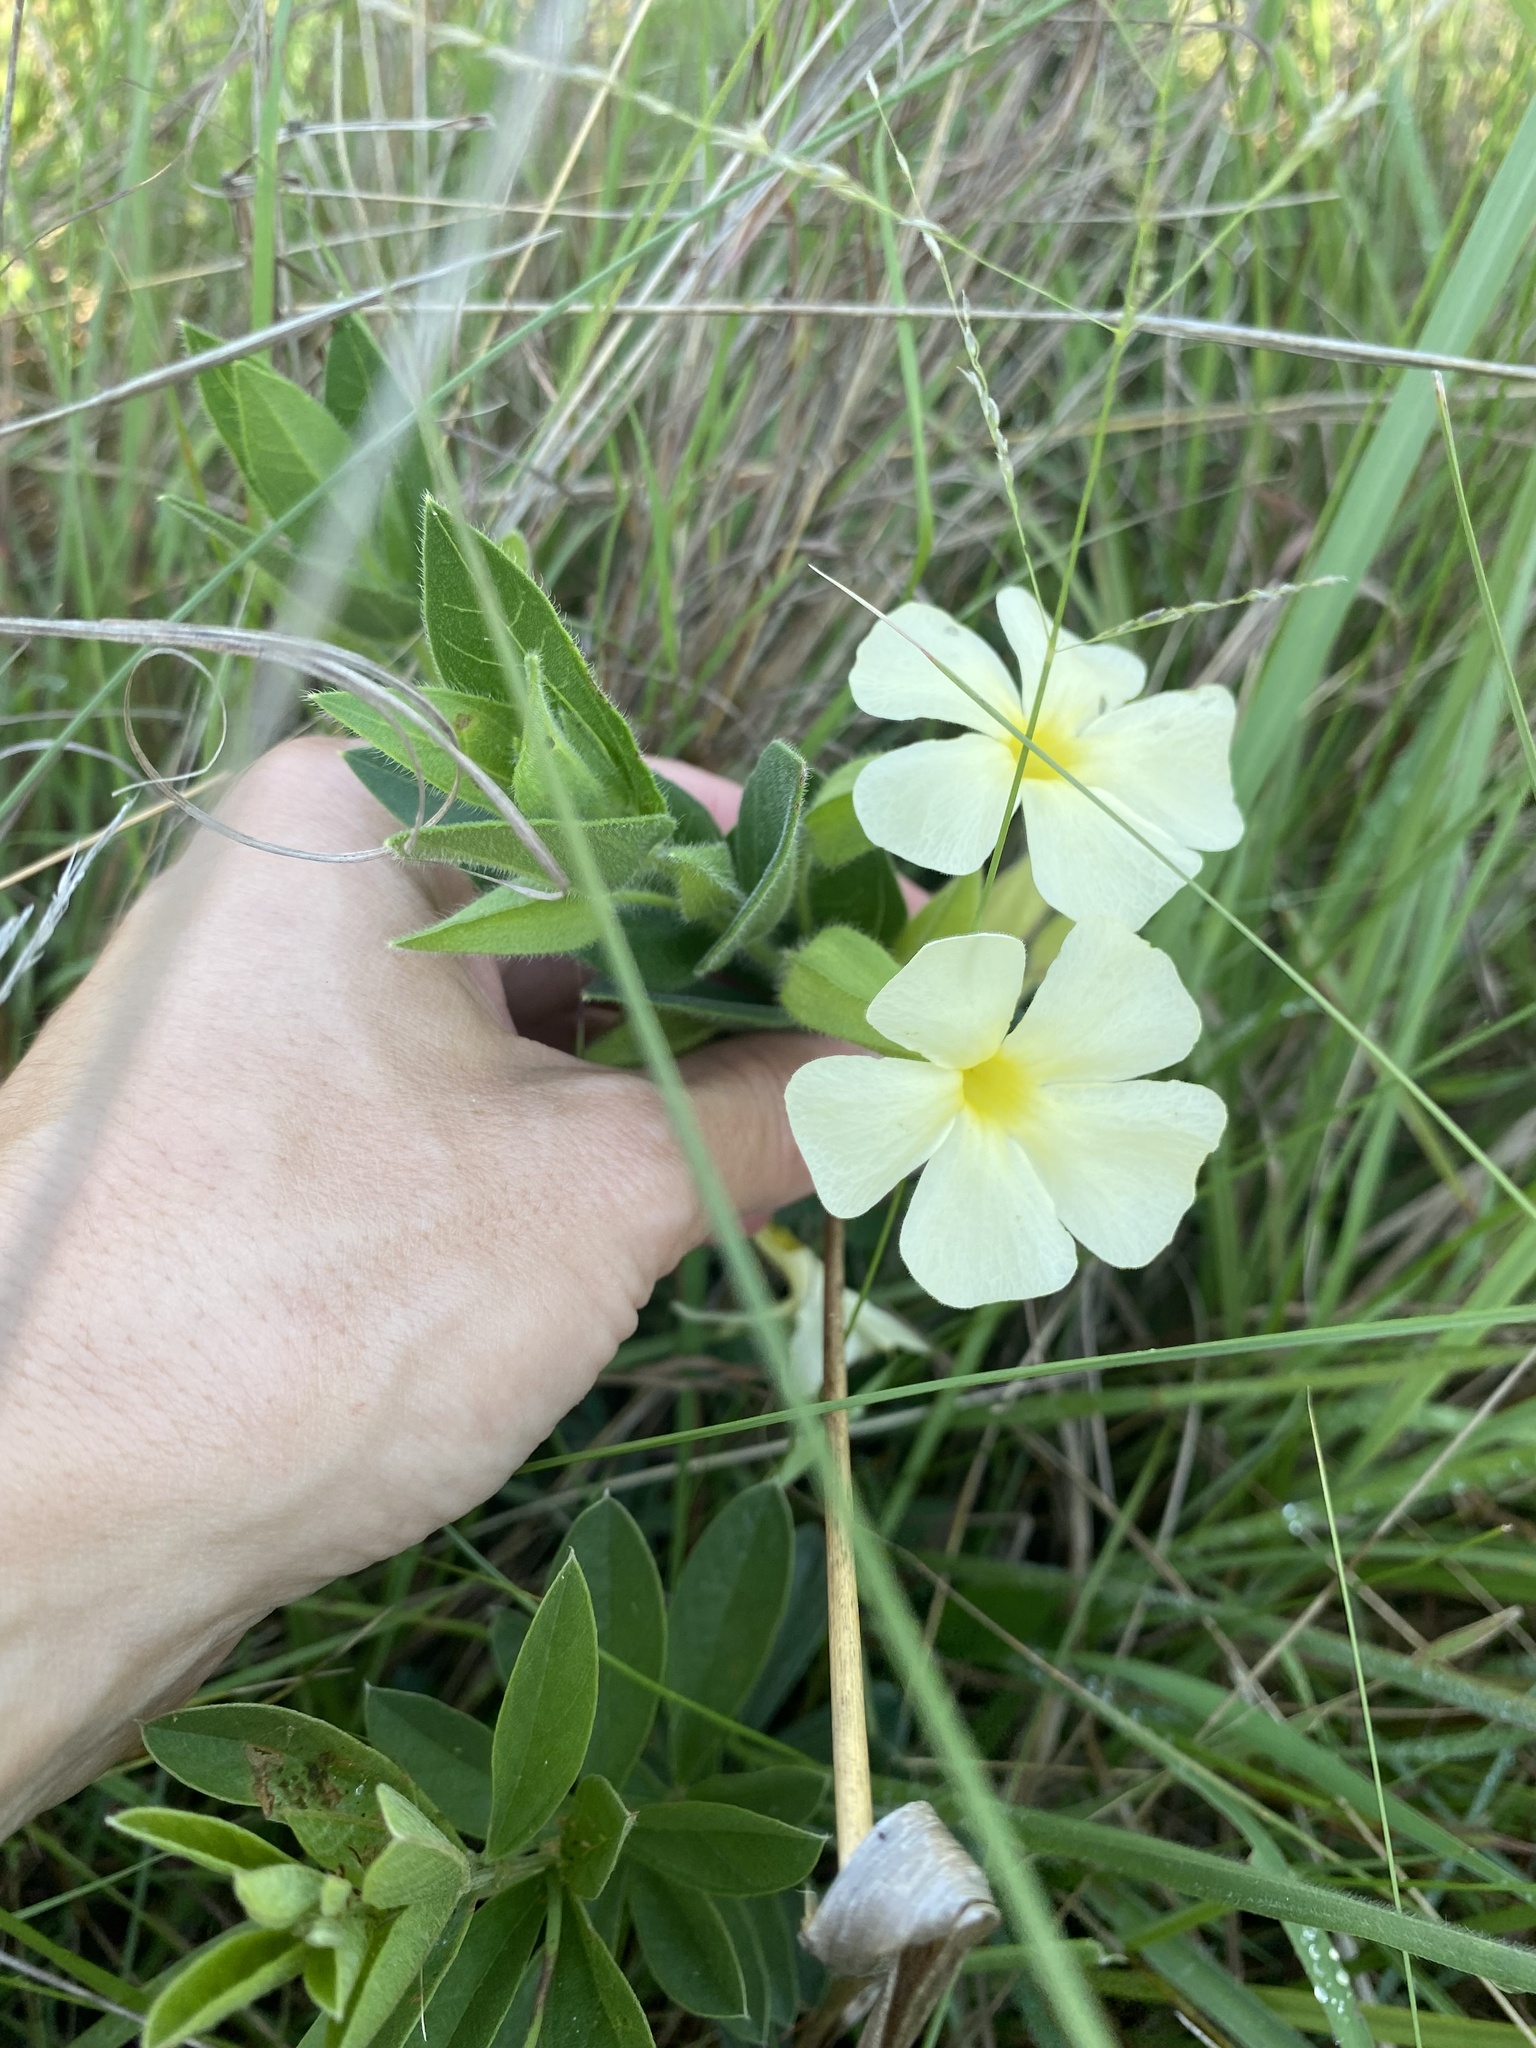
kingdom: Plantae
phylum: Tracheophyta
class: Magnoliopsida
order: Lamiales
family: Acanthaceae
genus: Thunbergia
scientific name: Thunbergia atriplicifolia
